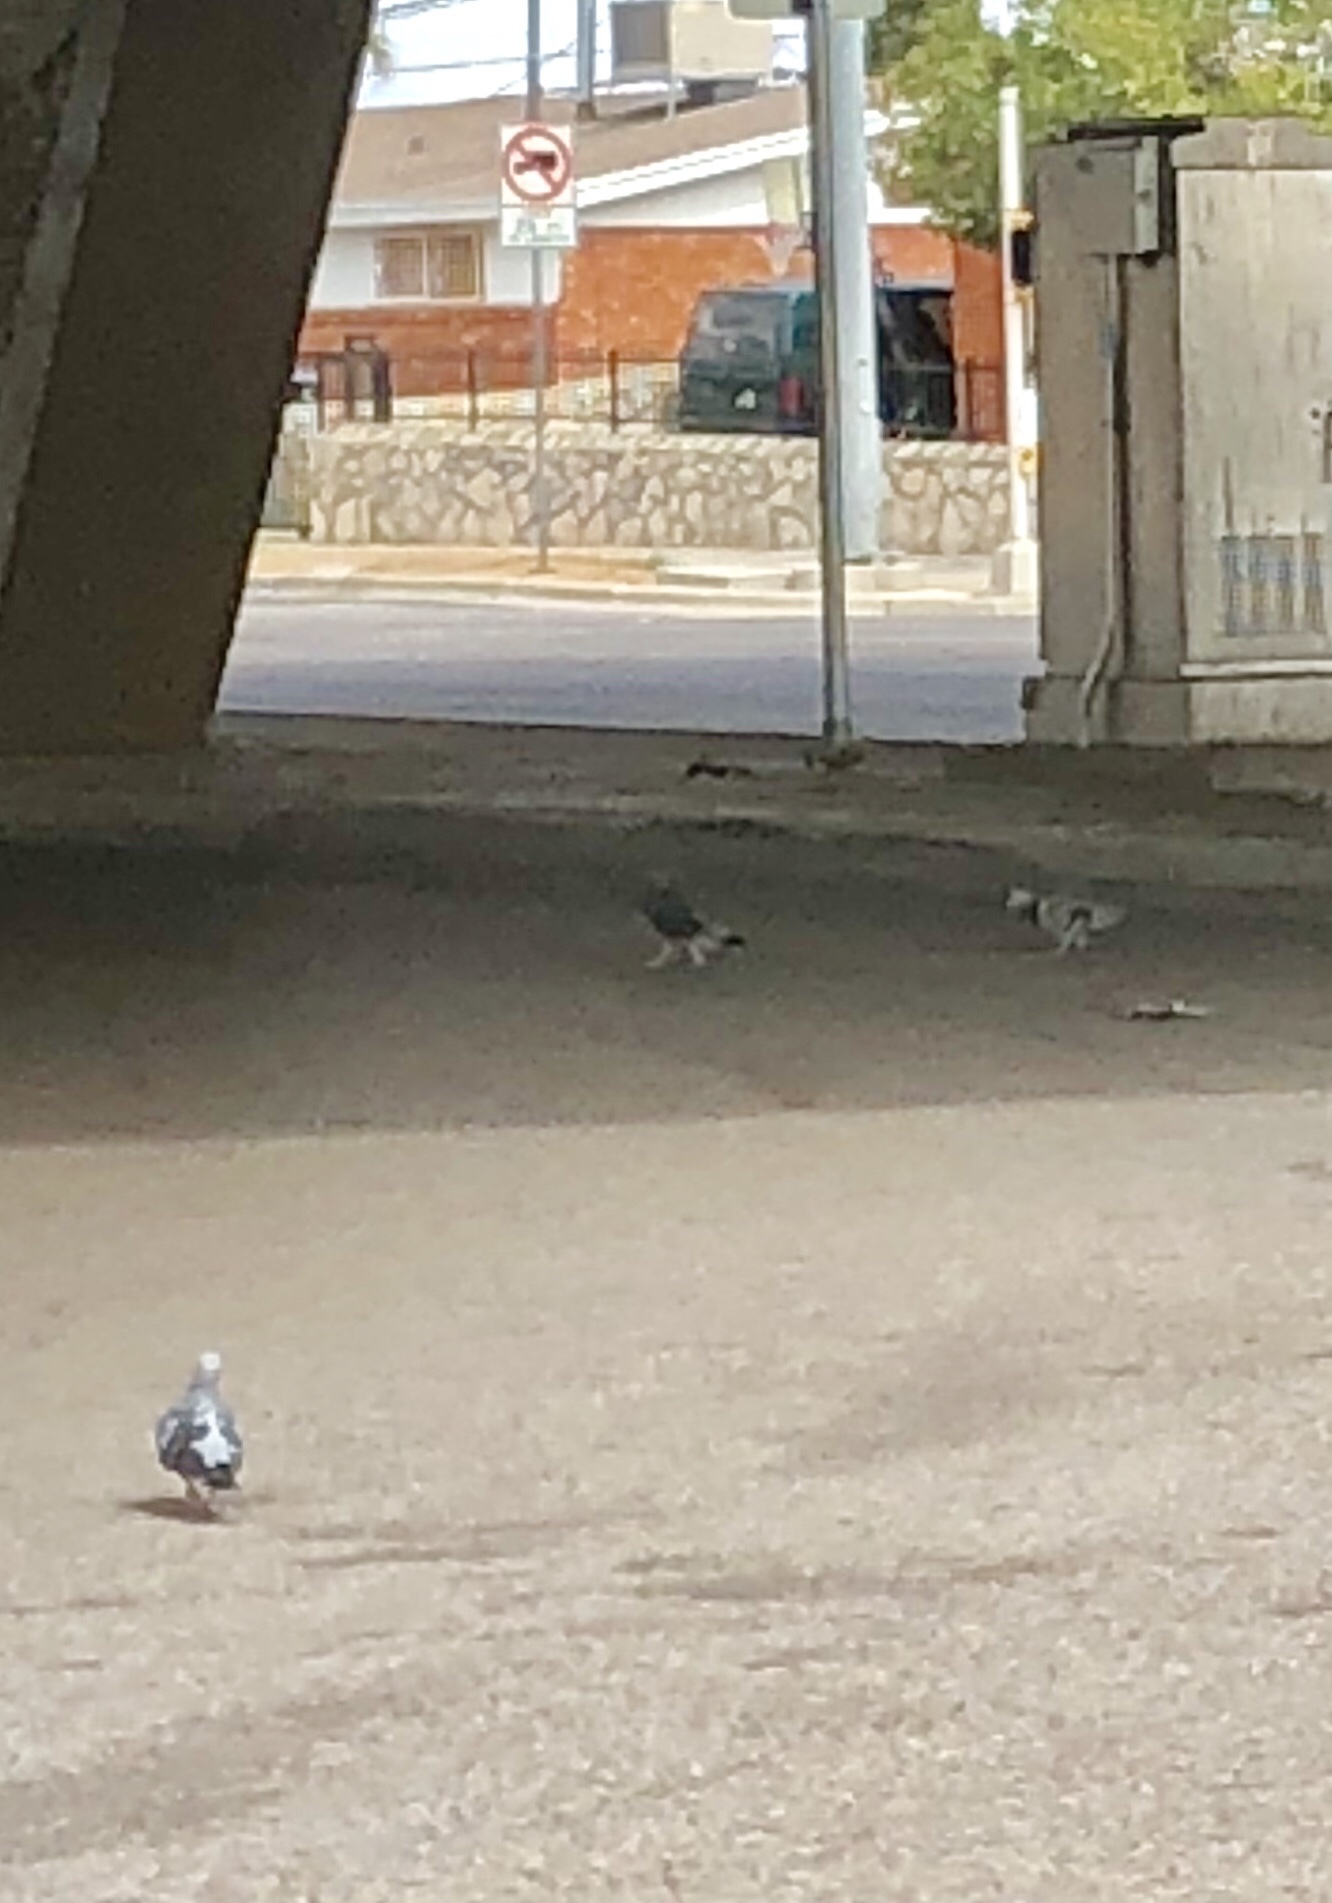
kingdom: Animalia
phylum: Chordata
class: Aves
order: Columbiformes
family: Columbidae
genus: Columba
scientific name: Columba livia
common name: Rock pigeon
